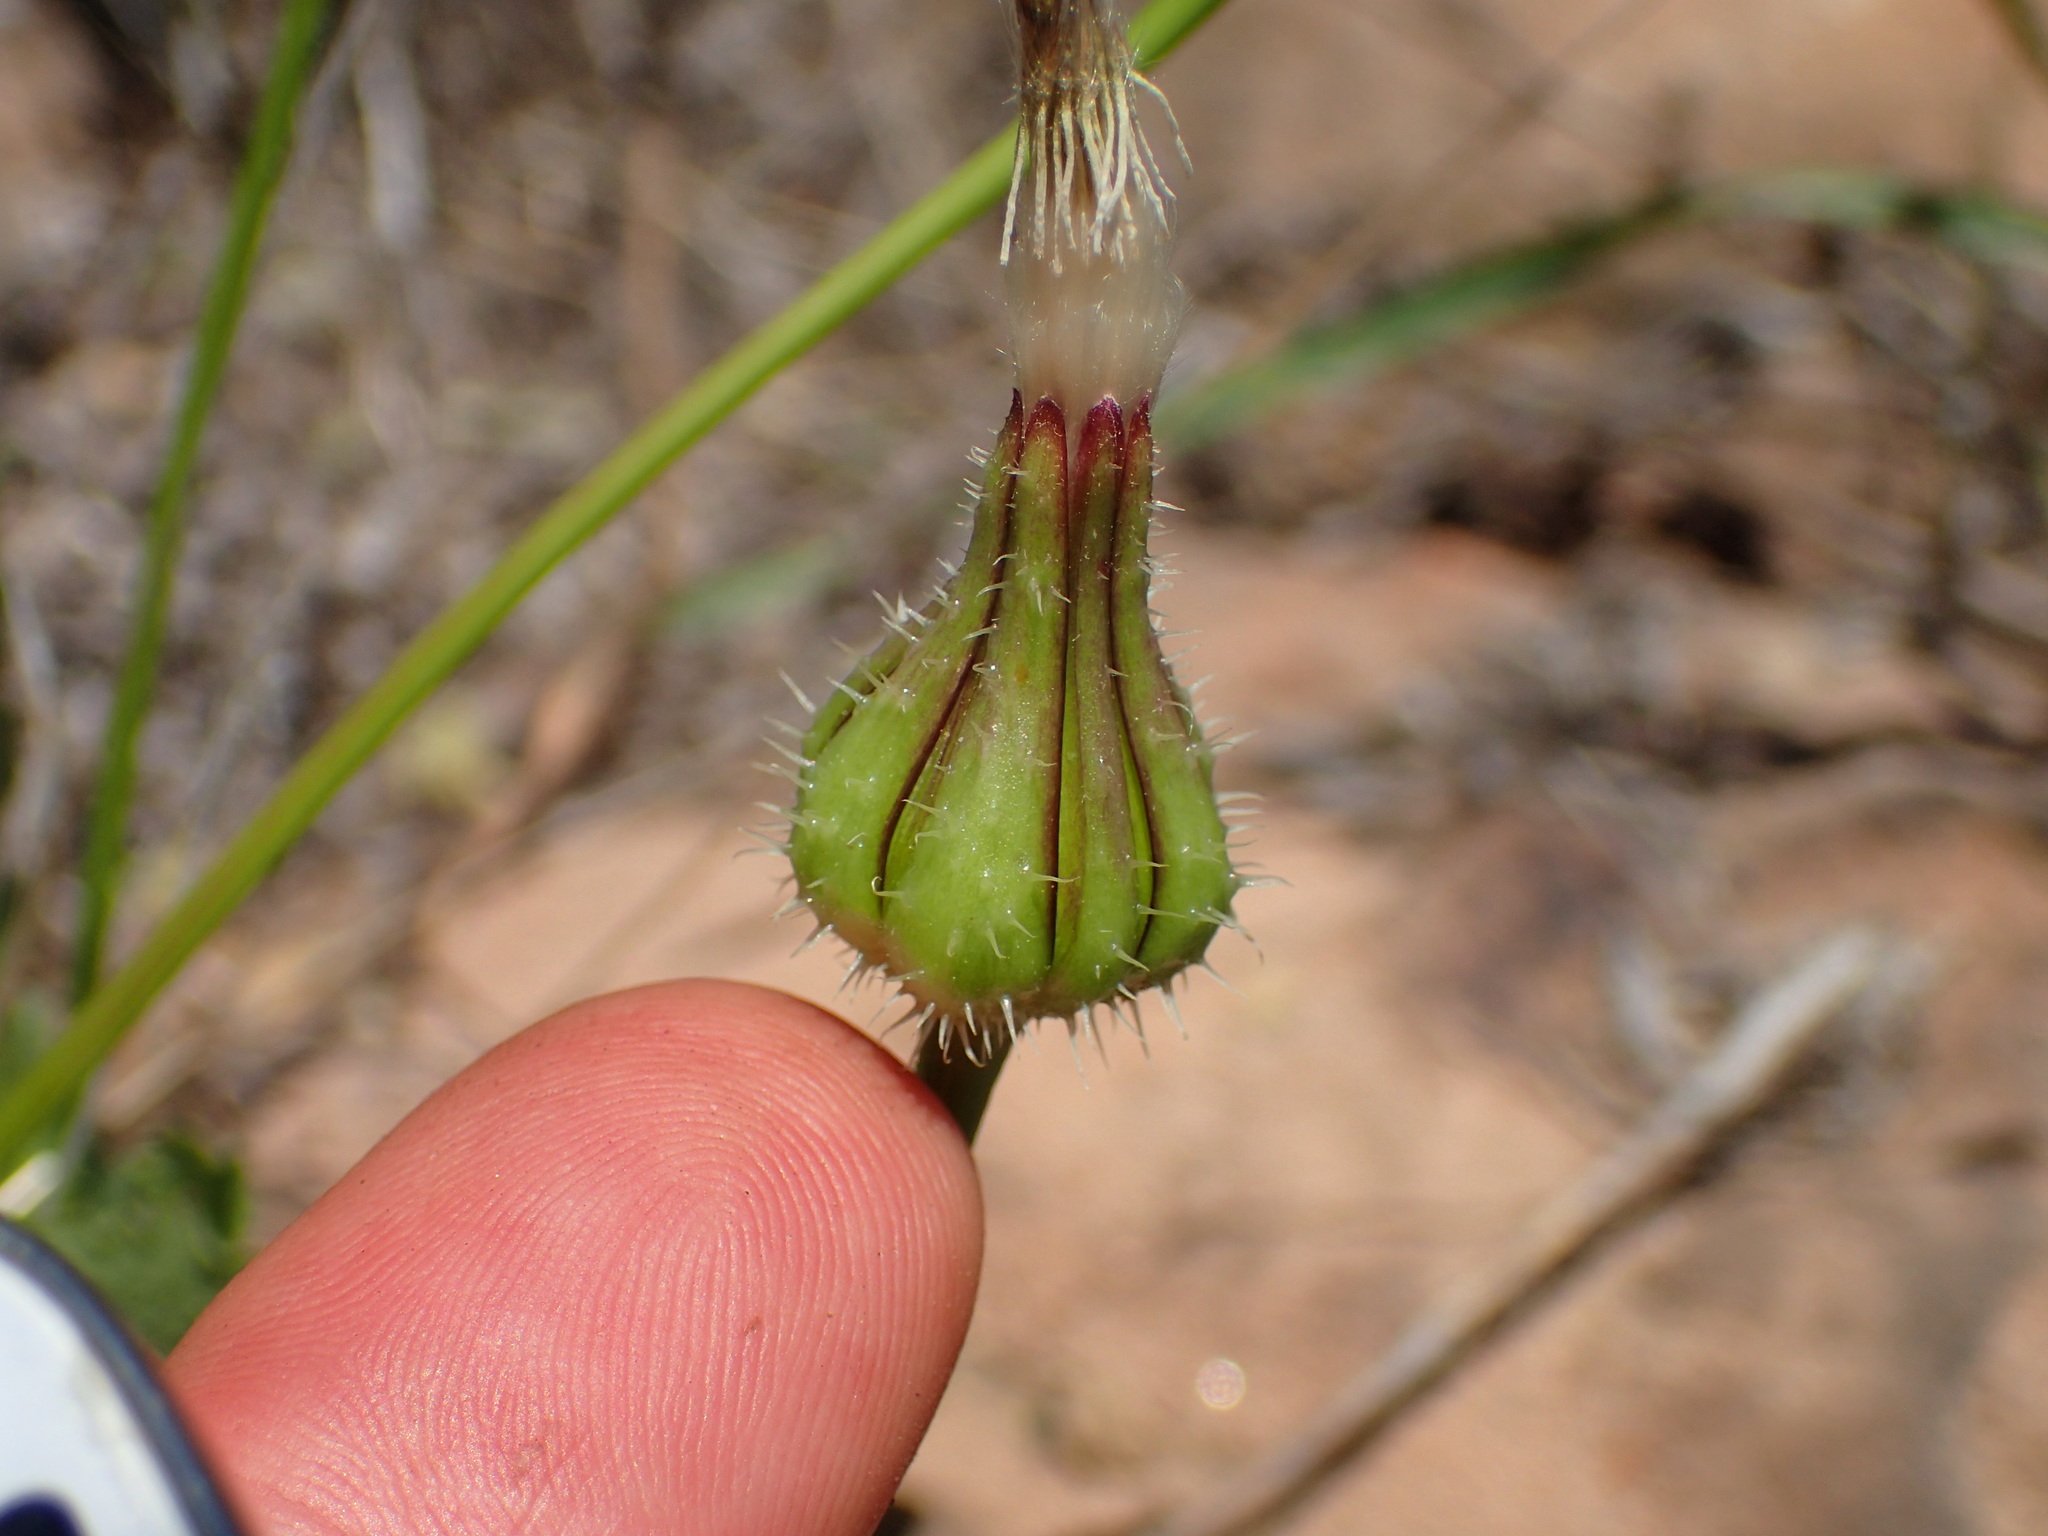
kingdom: Plantae
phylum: Tracheophyta
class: Magnoliopsida
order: Asterales
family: Asteraceae
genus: Urospermum
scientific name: Urospermum picroides
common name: False hawkbit
